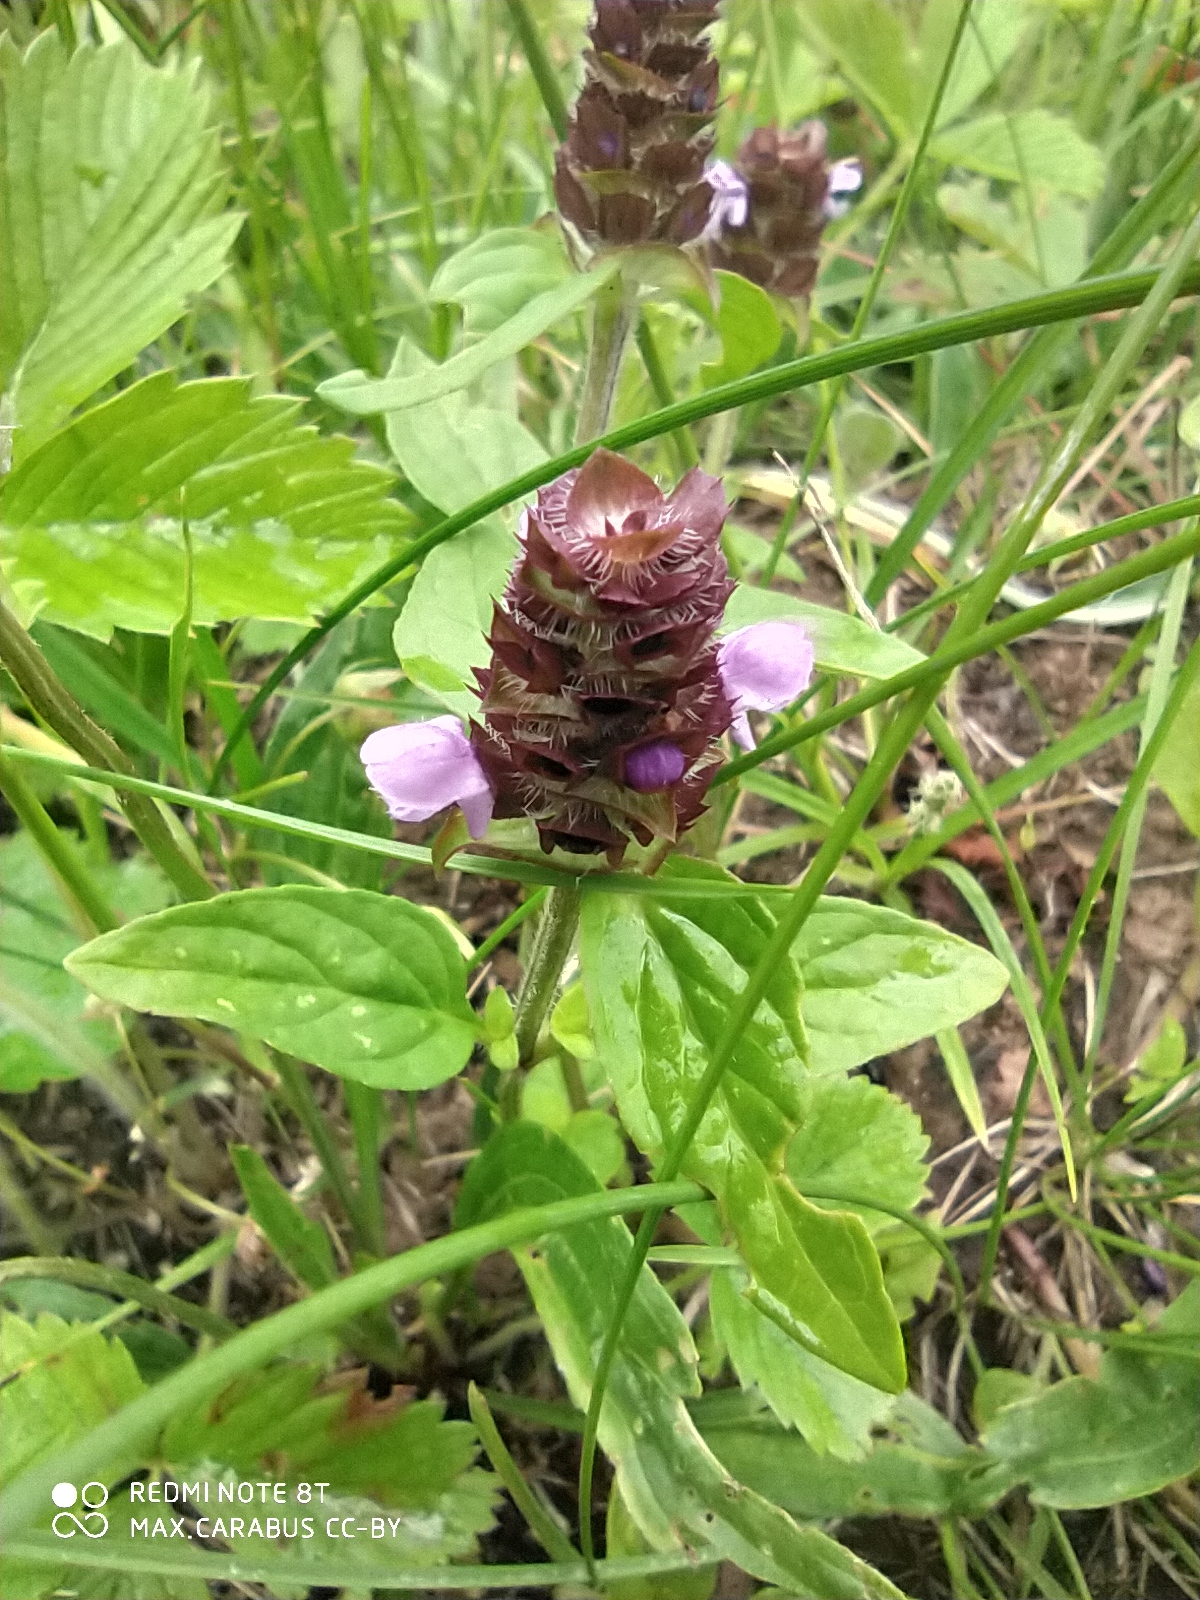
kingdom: Plantae
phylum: Tracheophyta
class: Magnoliopsida
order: Lamiales
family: Lamiaceae
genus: Prunella
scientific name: Prunella vulgaris
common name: Heal-all
